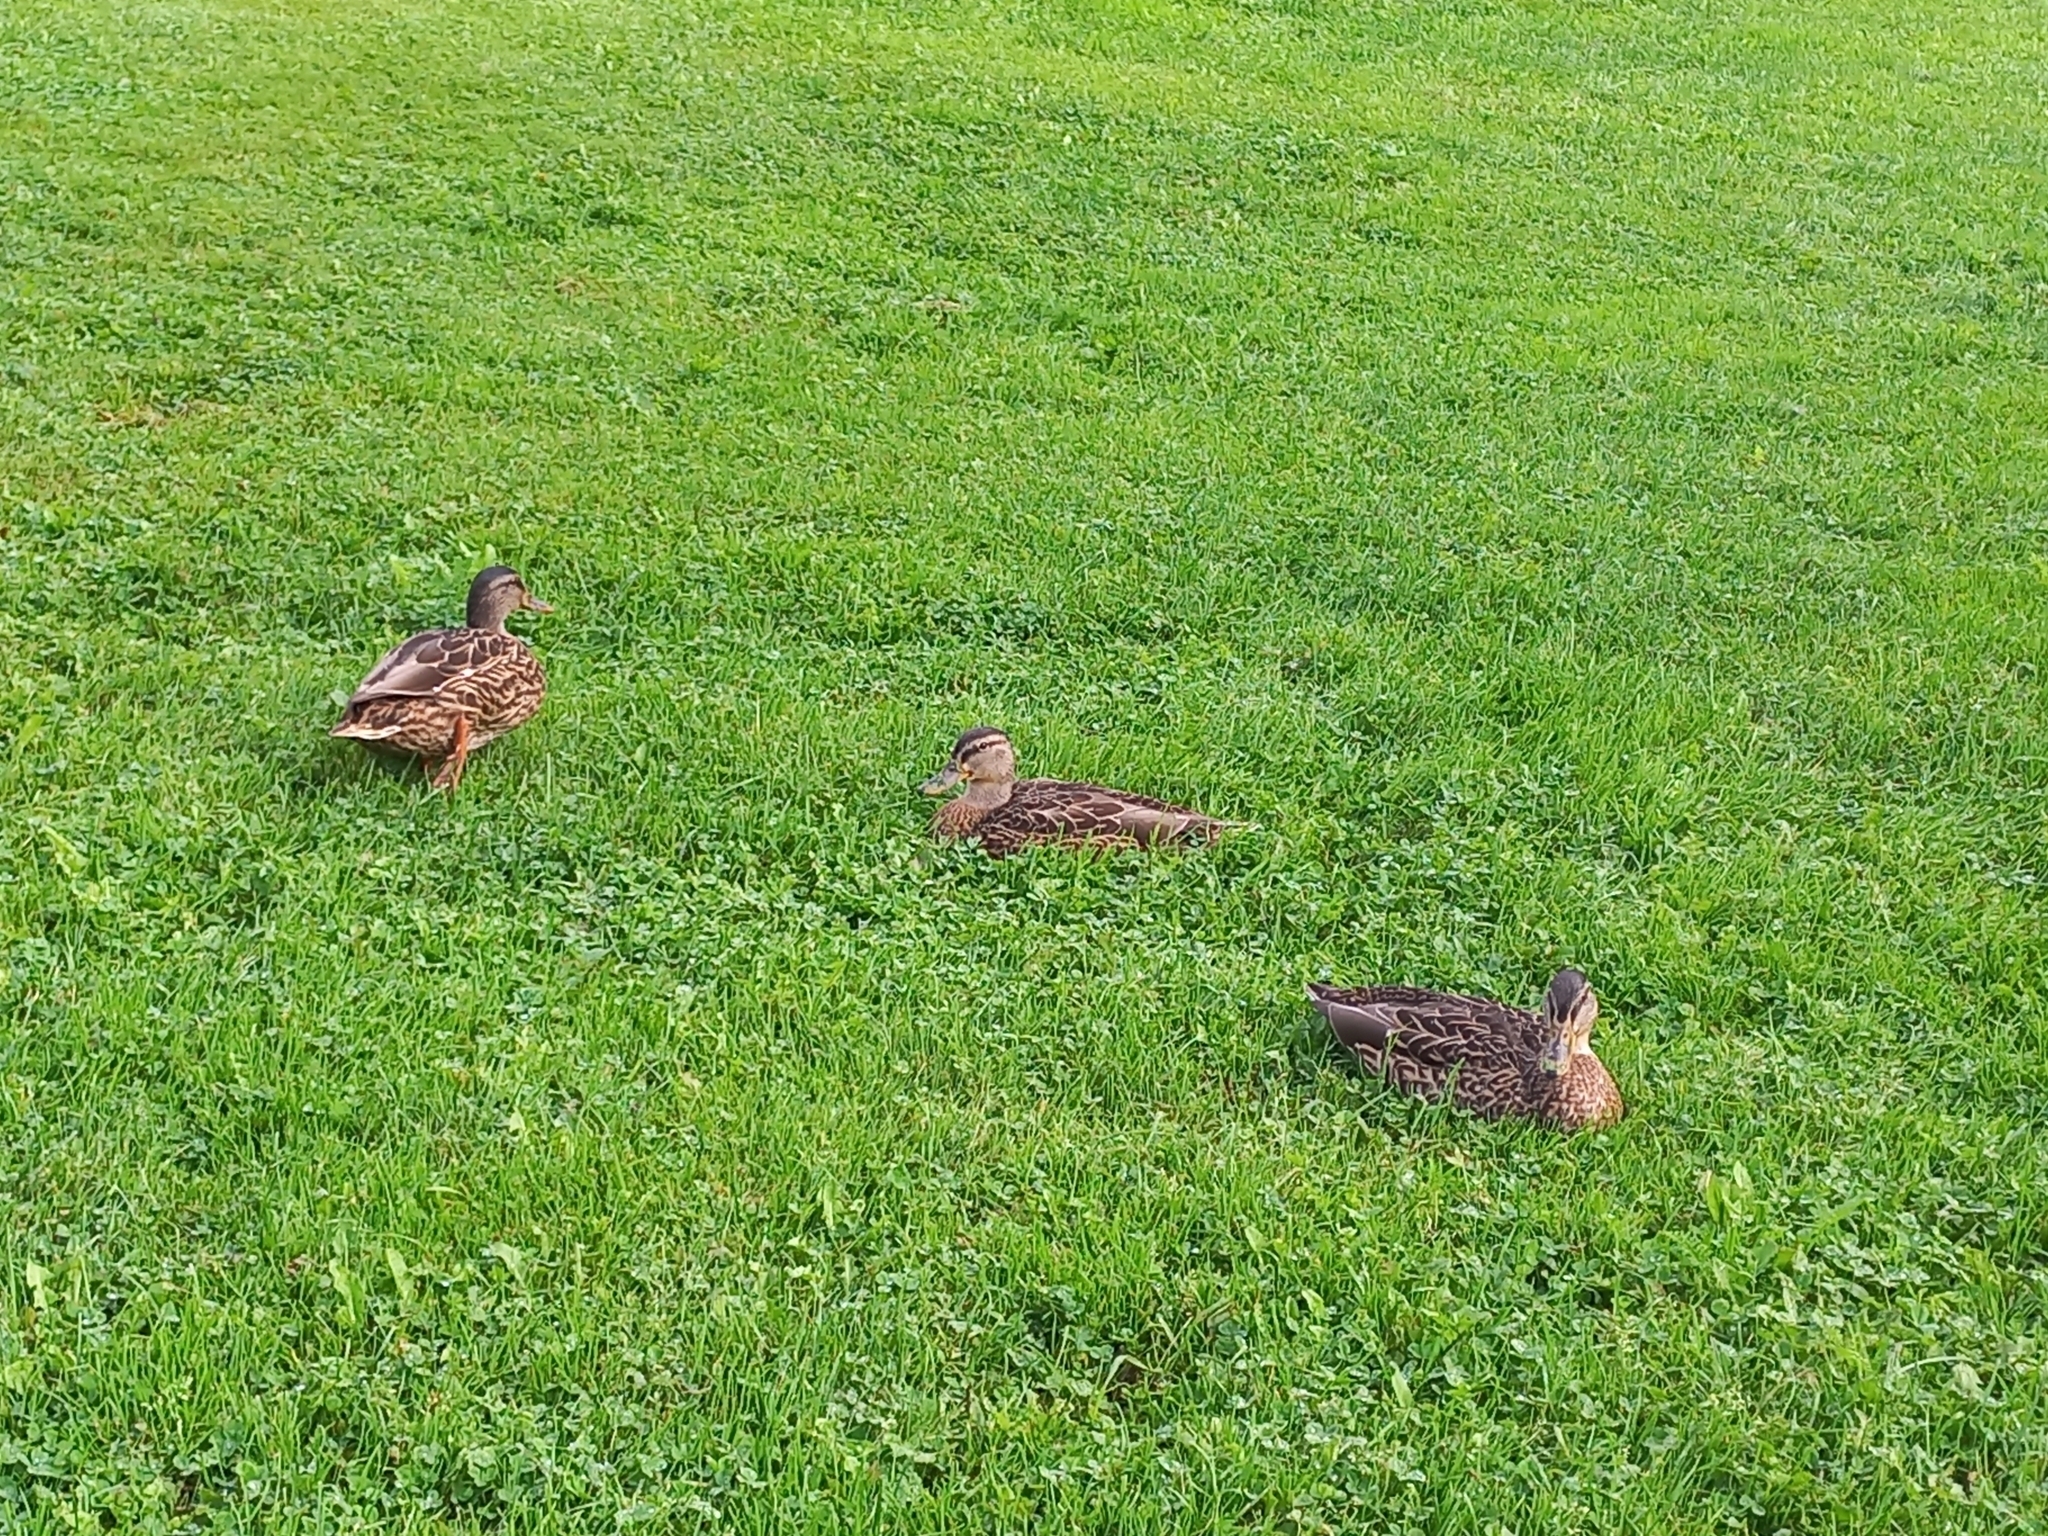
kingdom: Animalia
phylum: Chordata
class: Aves
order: Anseriformes
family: Anatidae
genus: Anas
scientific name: Anas platyrhynchos
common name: Mallard
